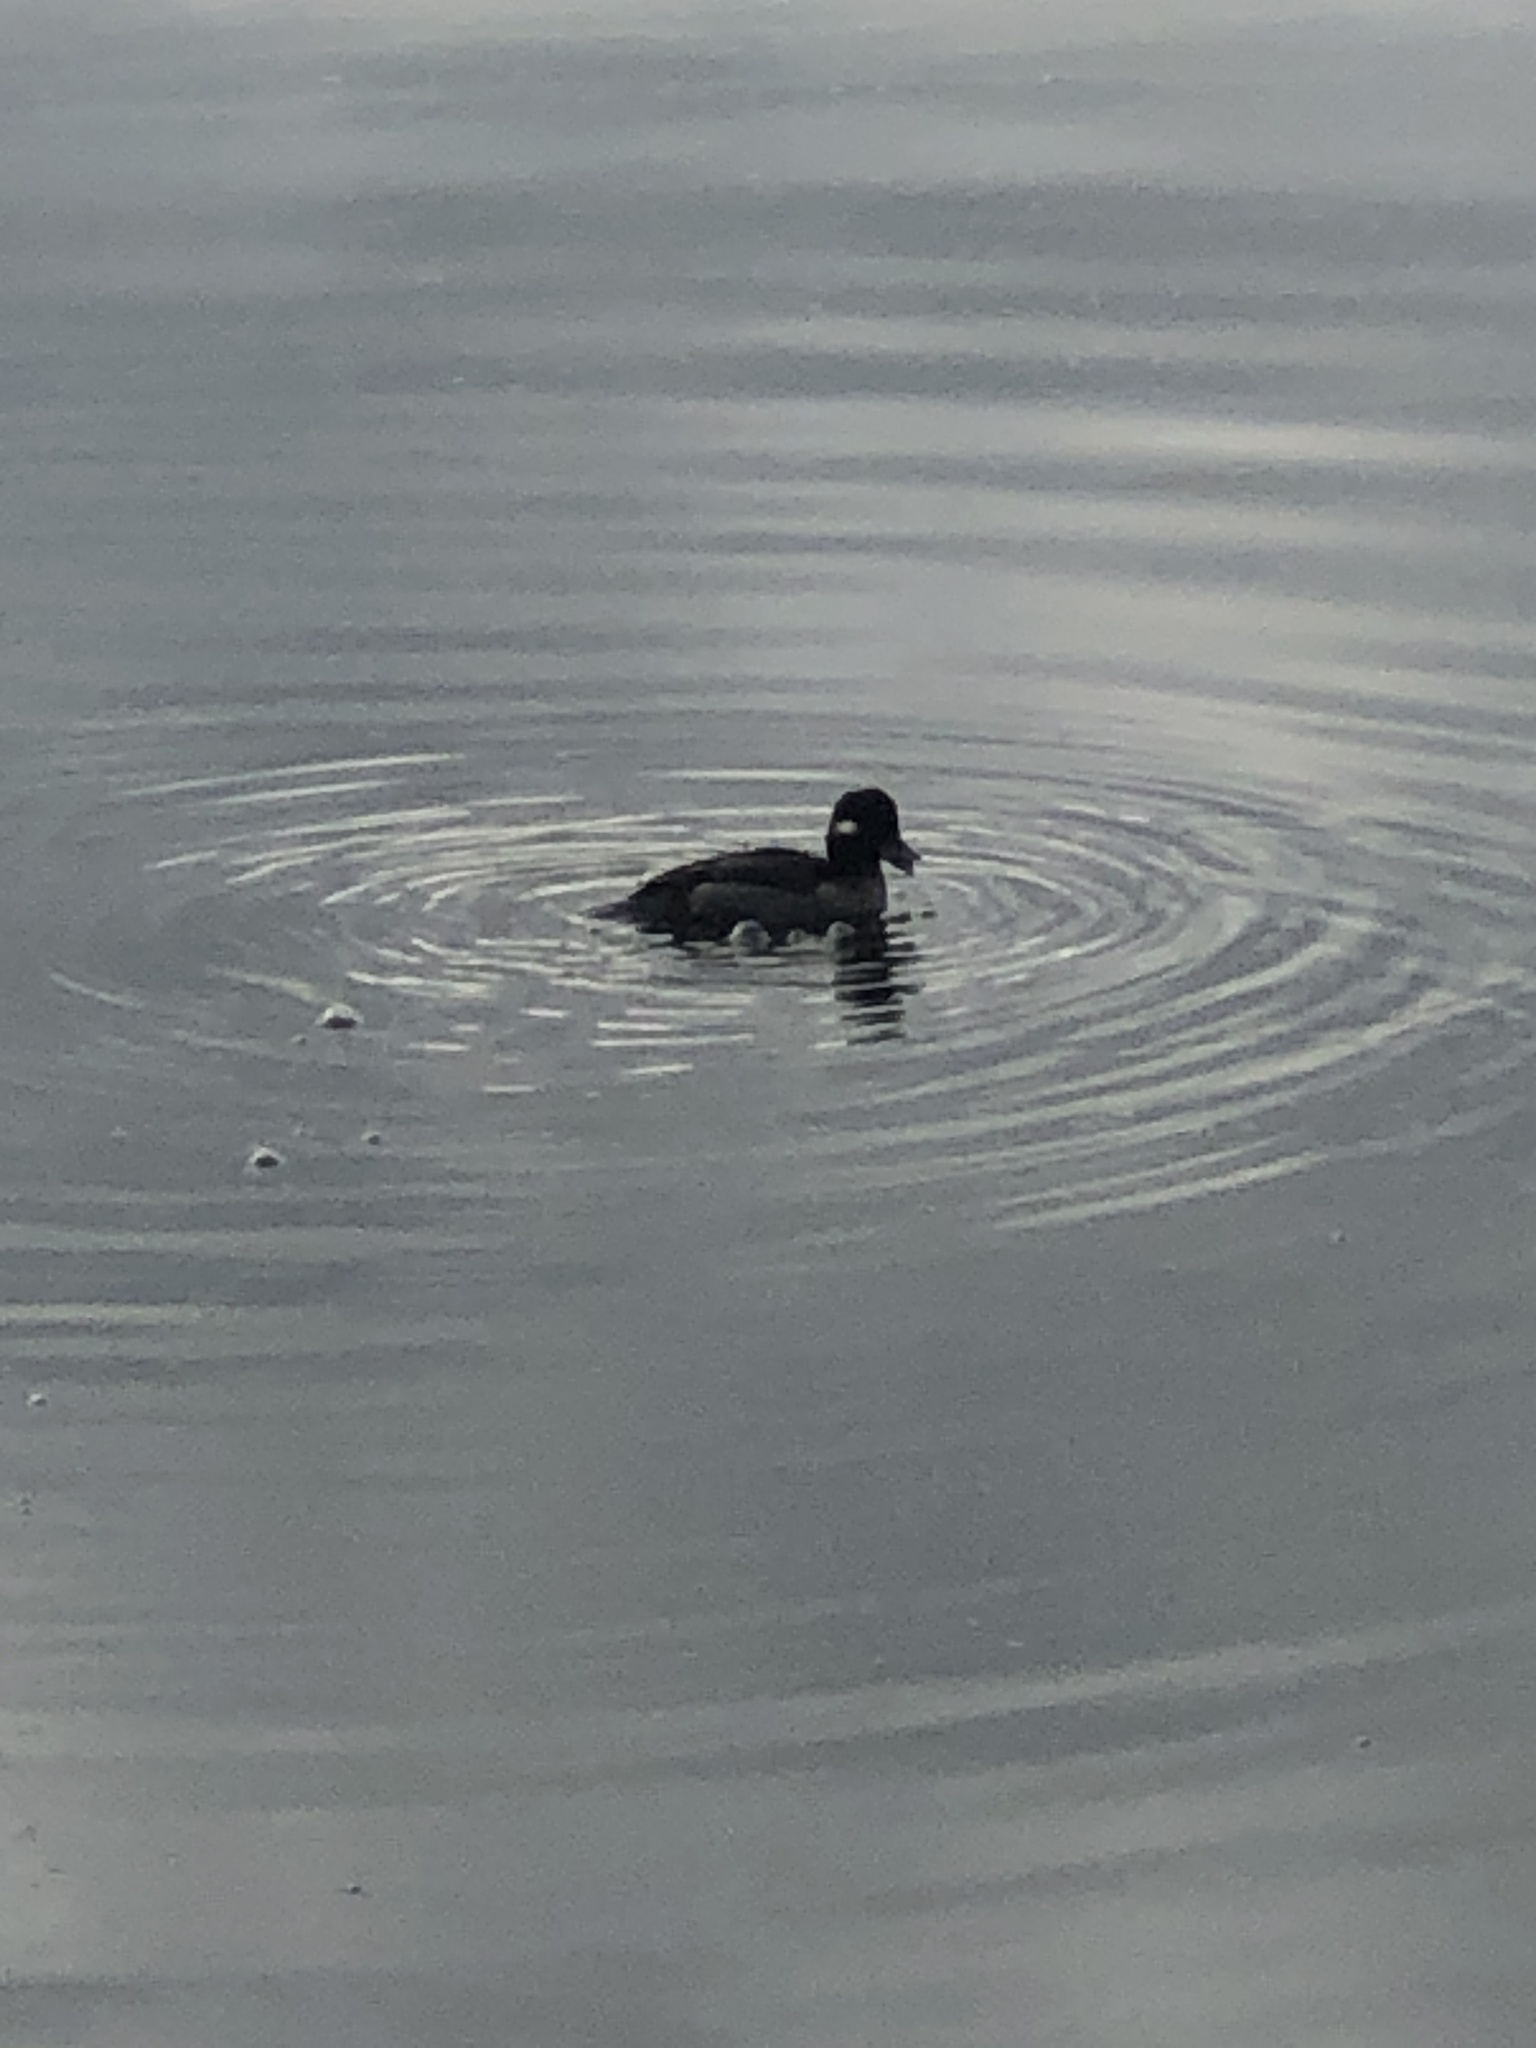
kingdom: Animalia
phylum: Chordata
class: Aves
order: Anseriformes
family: Anatidae
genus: Bucephala
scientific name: Bucephala albeola
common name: Bufflehead
